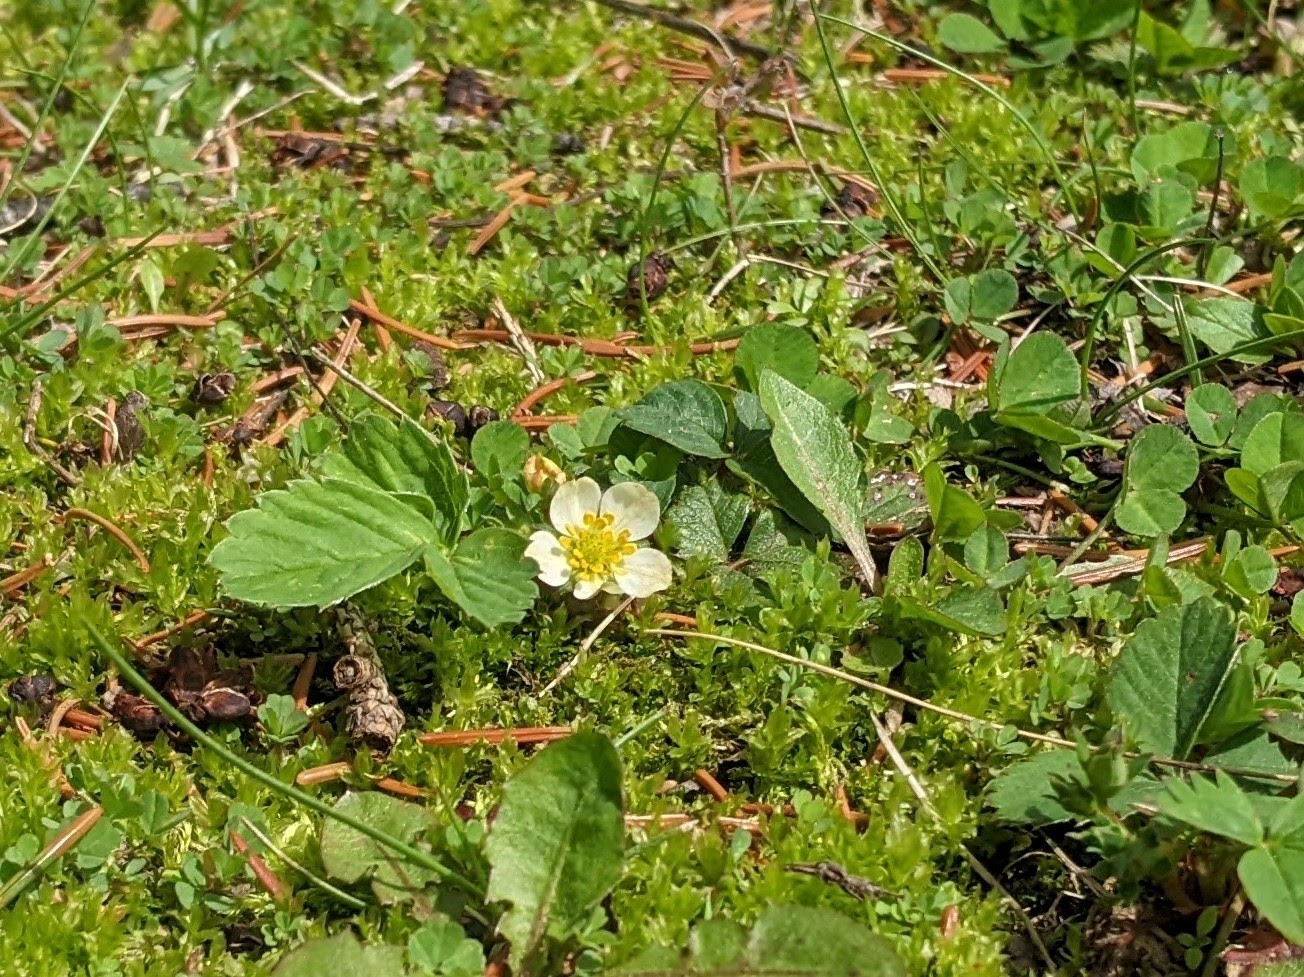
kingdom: Plantae
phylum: Tracheophyta
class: Magnoliopsida
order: Rosales
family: Rosaceae
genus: Fragaria
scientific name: Fragaria virginiana
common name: Thickleaved wild strawberry
